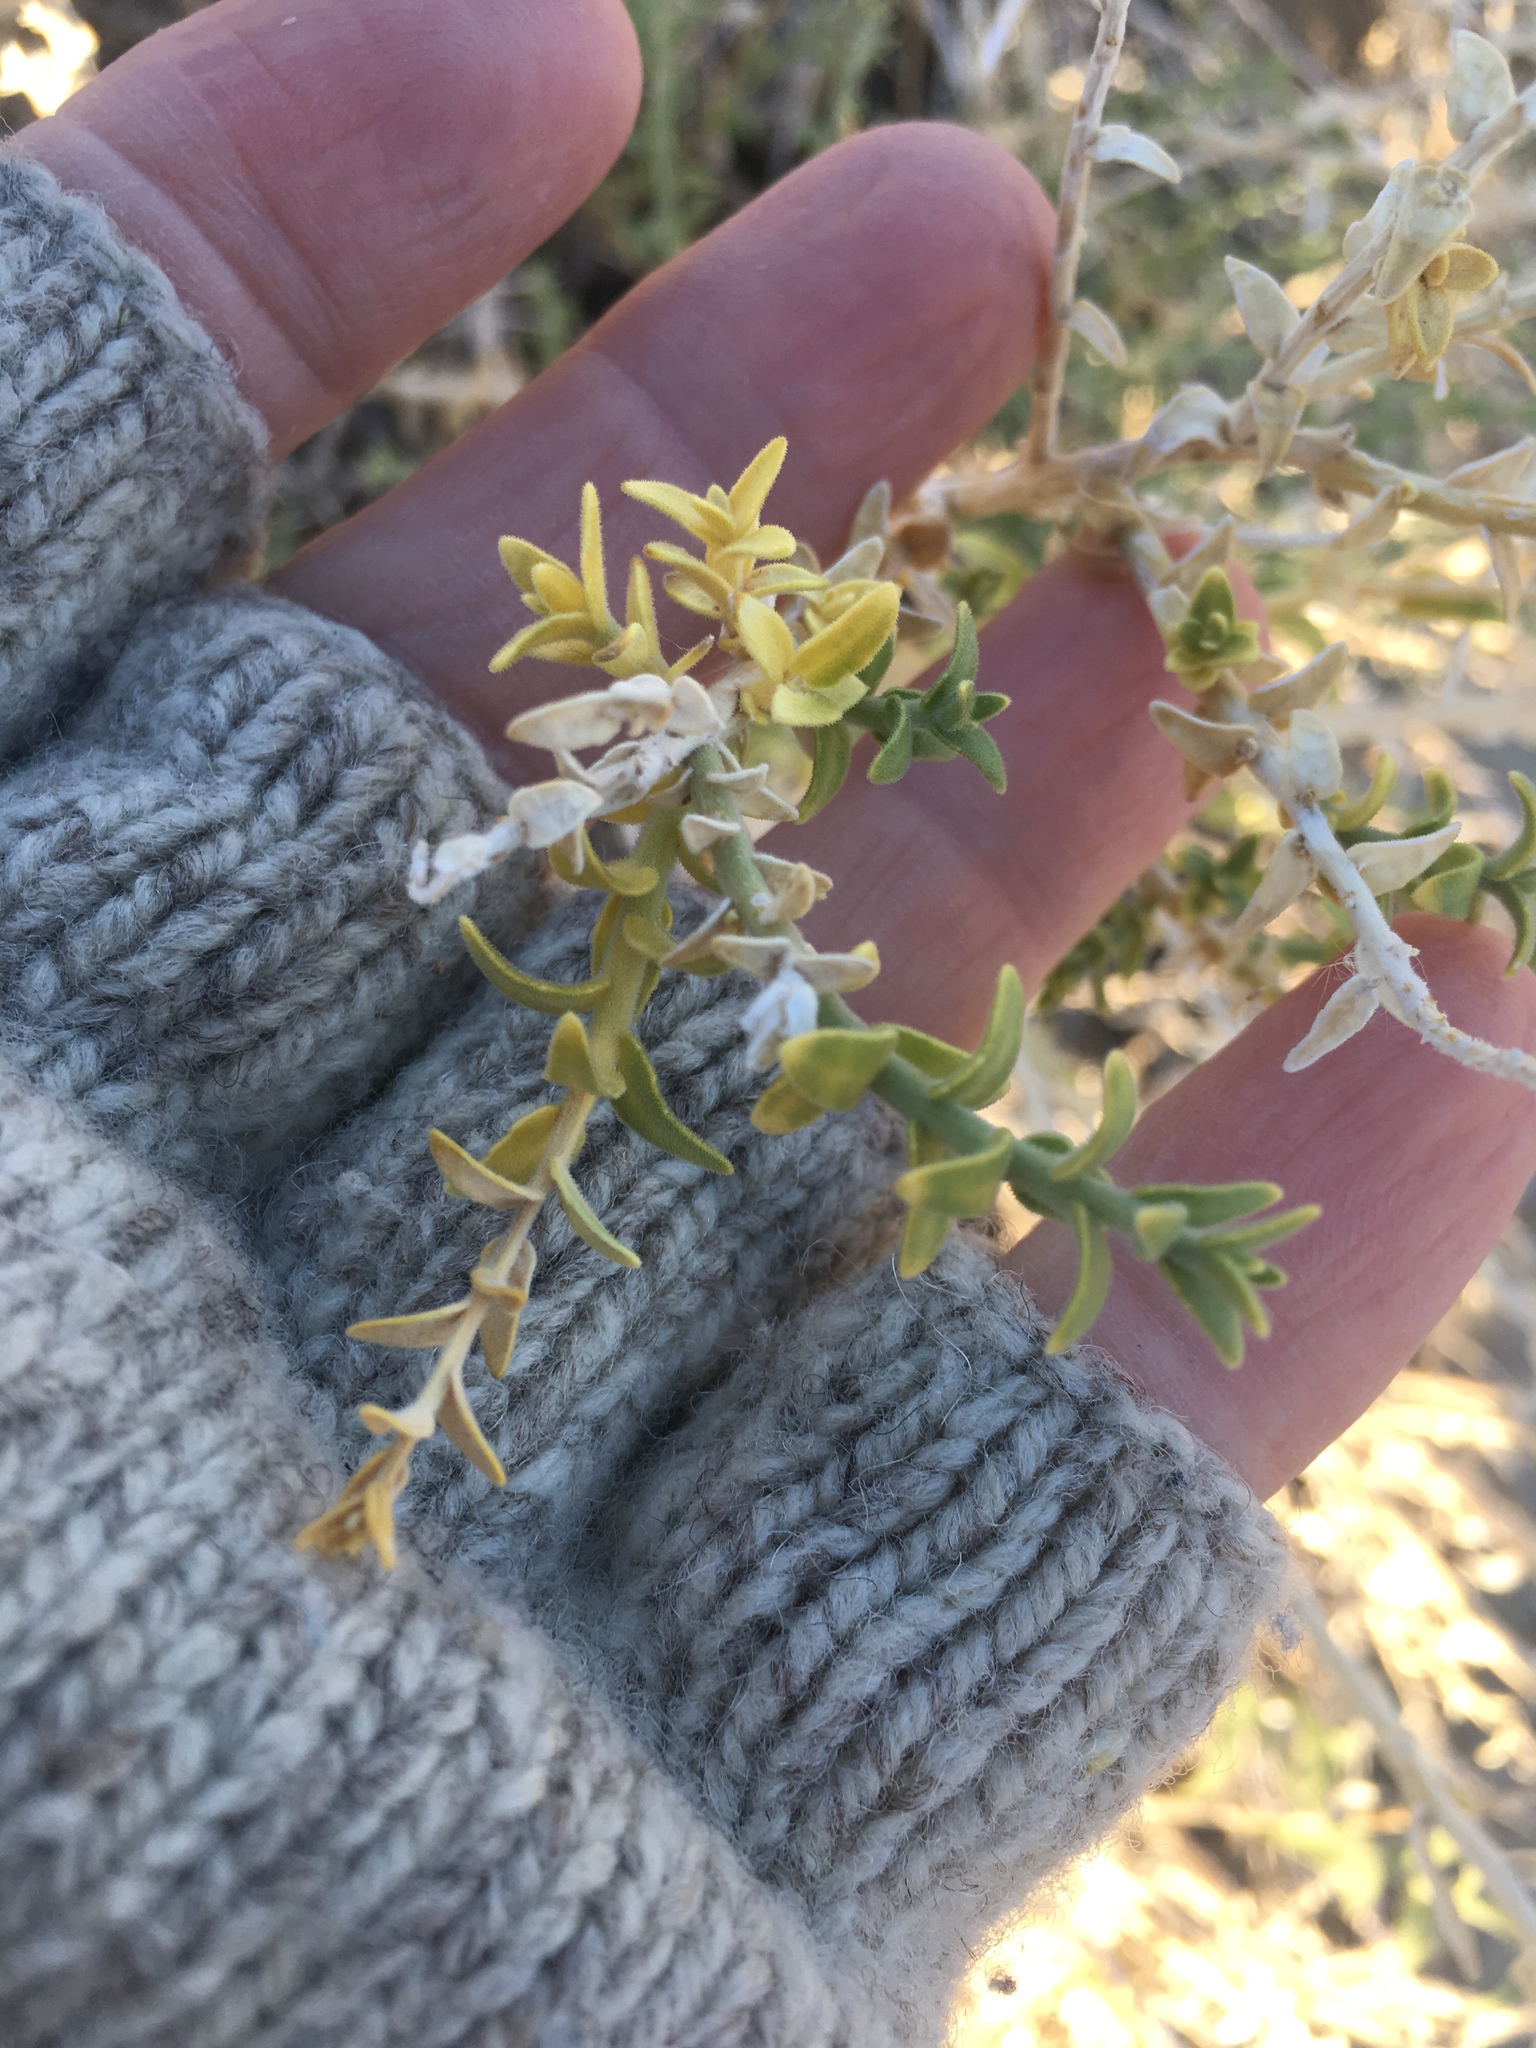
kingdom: Plantae
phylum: Tracheophyta
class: Magnoliopsida
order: Cornales
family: Loasaceae
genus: Petalonyx
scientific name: Petalonyx thurberi
